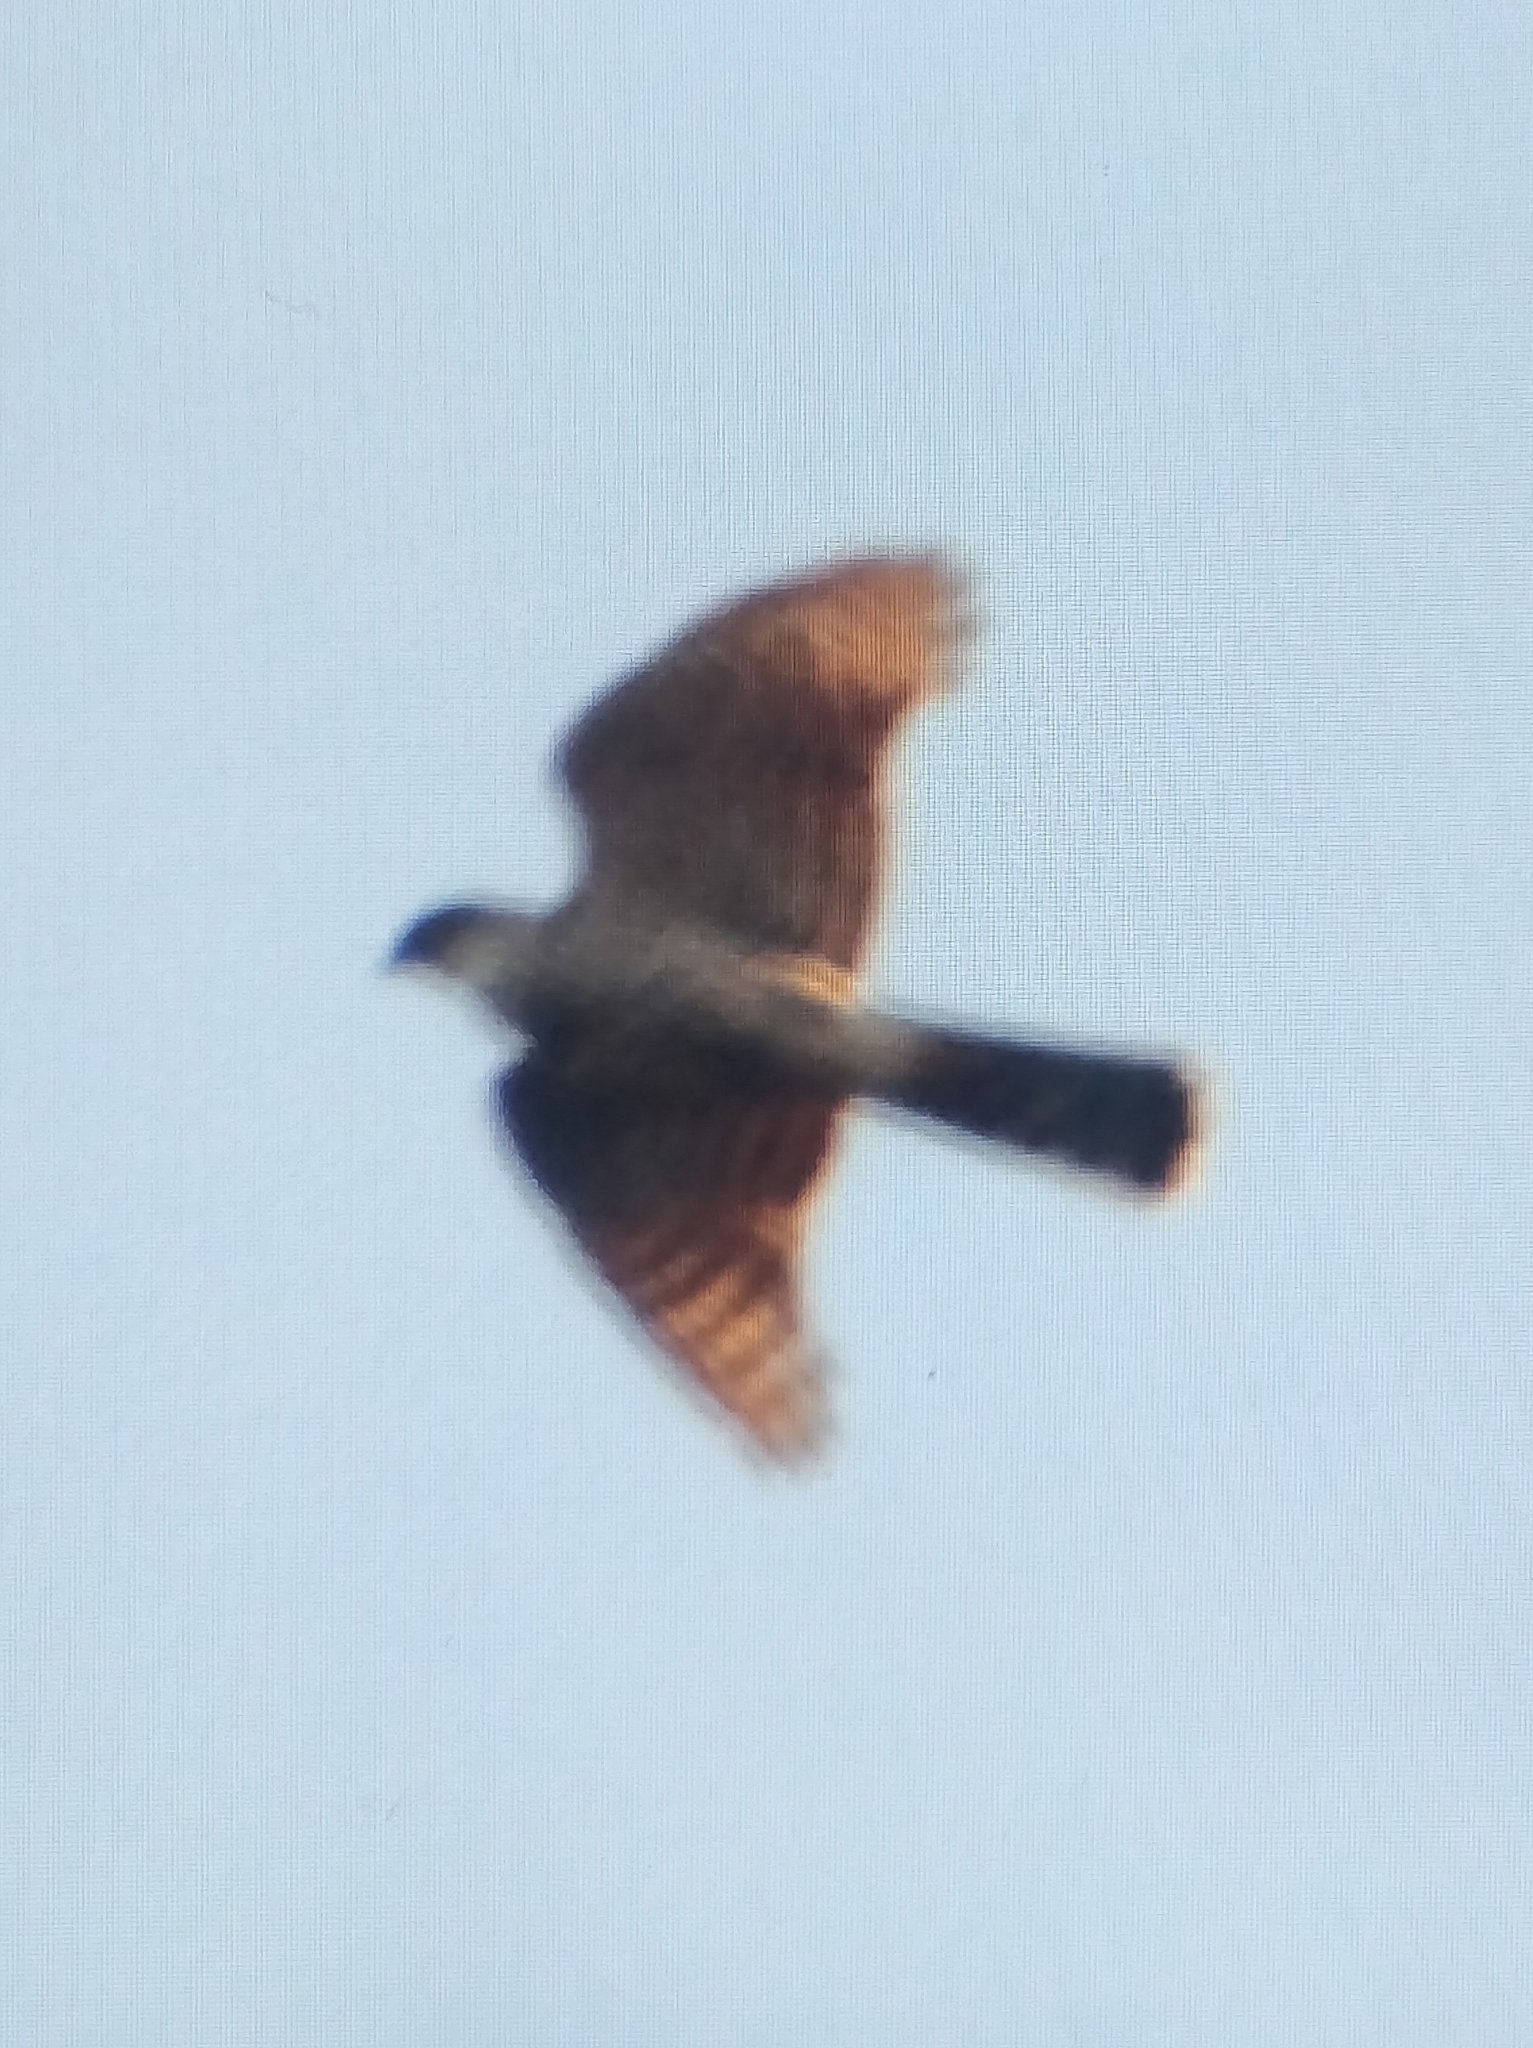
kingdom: Animalia
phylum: Chordata
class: Aves
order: Accipitriformes
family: Accipitridae
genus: Accipiter
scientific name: Accipiter nisus
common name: Eurasian sparrowhawk
